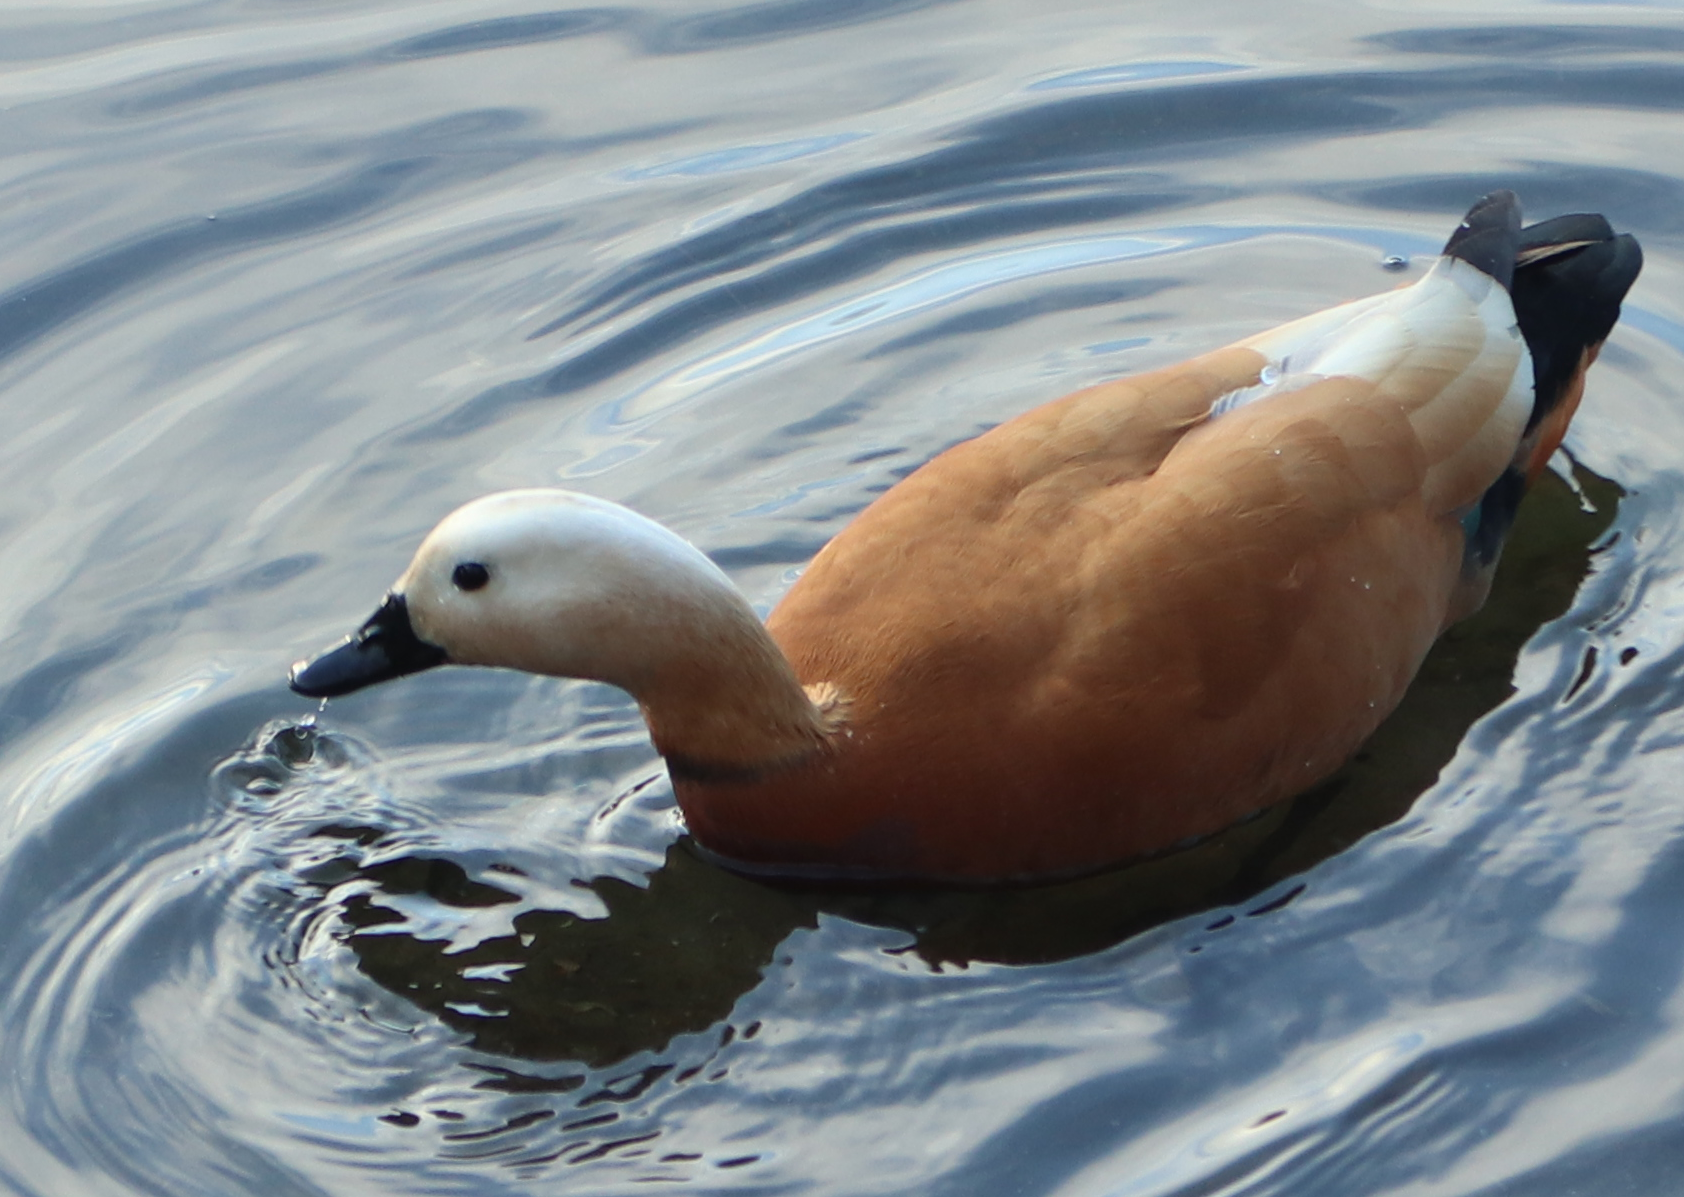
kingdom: Animalia
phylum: Chordata
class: Aves
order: Anseriformes
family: Anatidae
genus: Tadorna
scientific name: Tadorna ferruginea
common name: Ruddy shelduck
